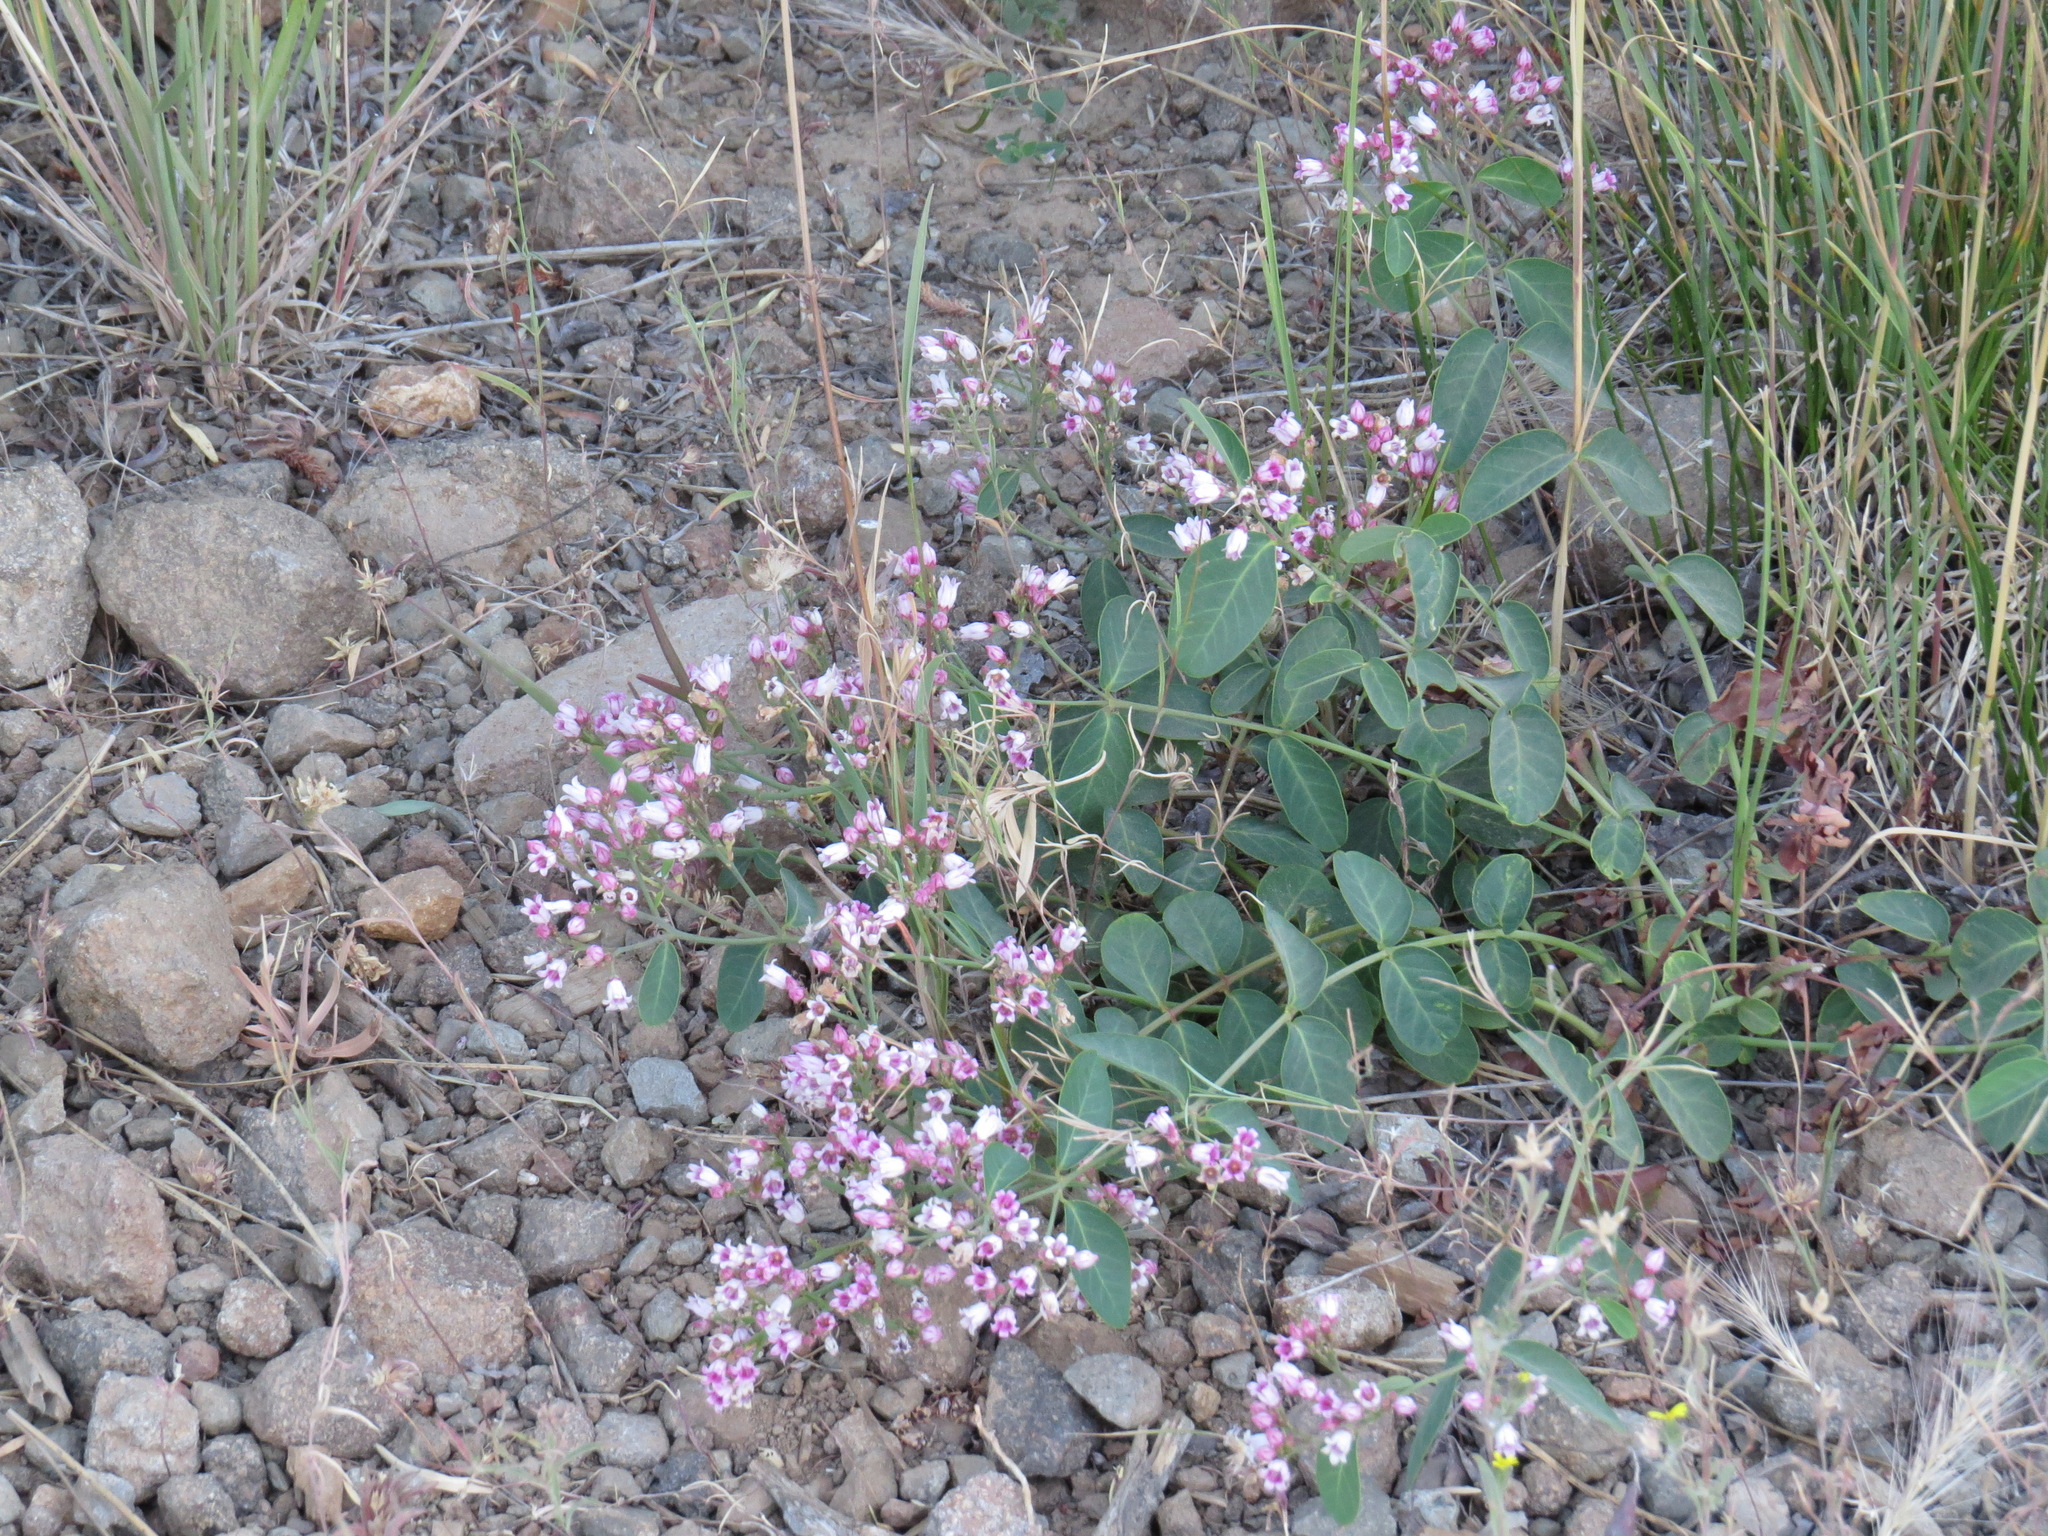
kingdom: Plantae
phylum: Tracheophyta
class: Magnoliopsida
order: Gentianales
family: Apocynaceae
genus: Apocynum
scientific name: Apocynum androsaemifolium
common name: Spreading dogbane
